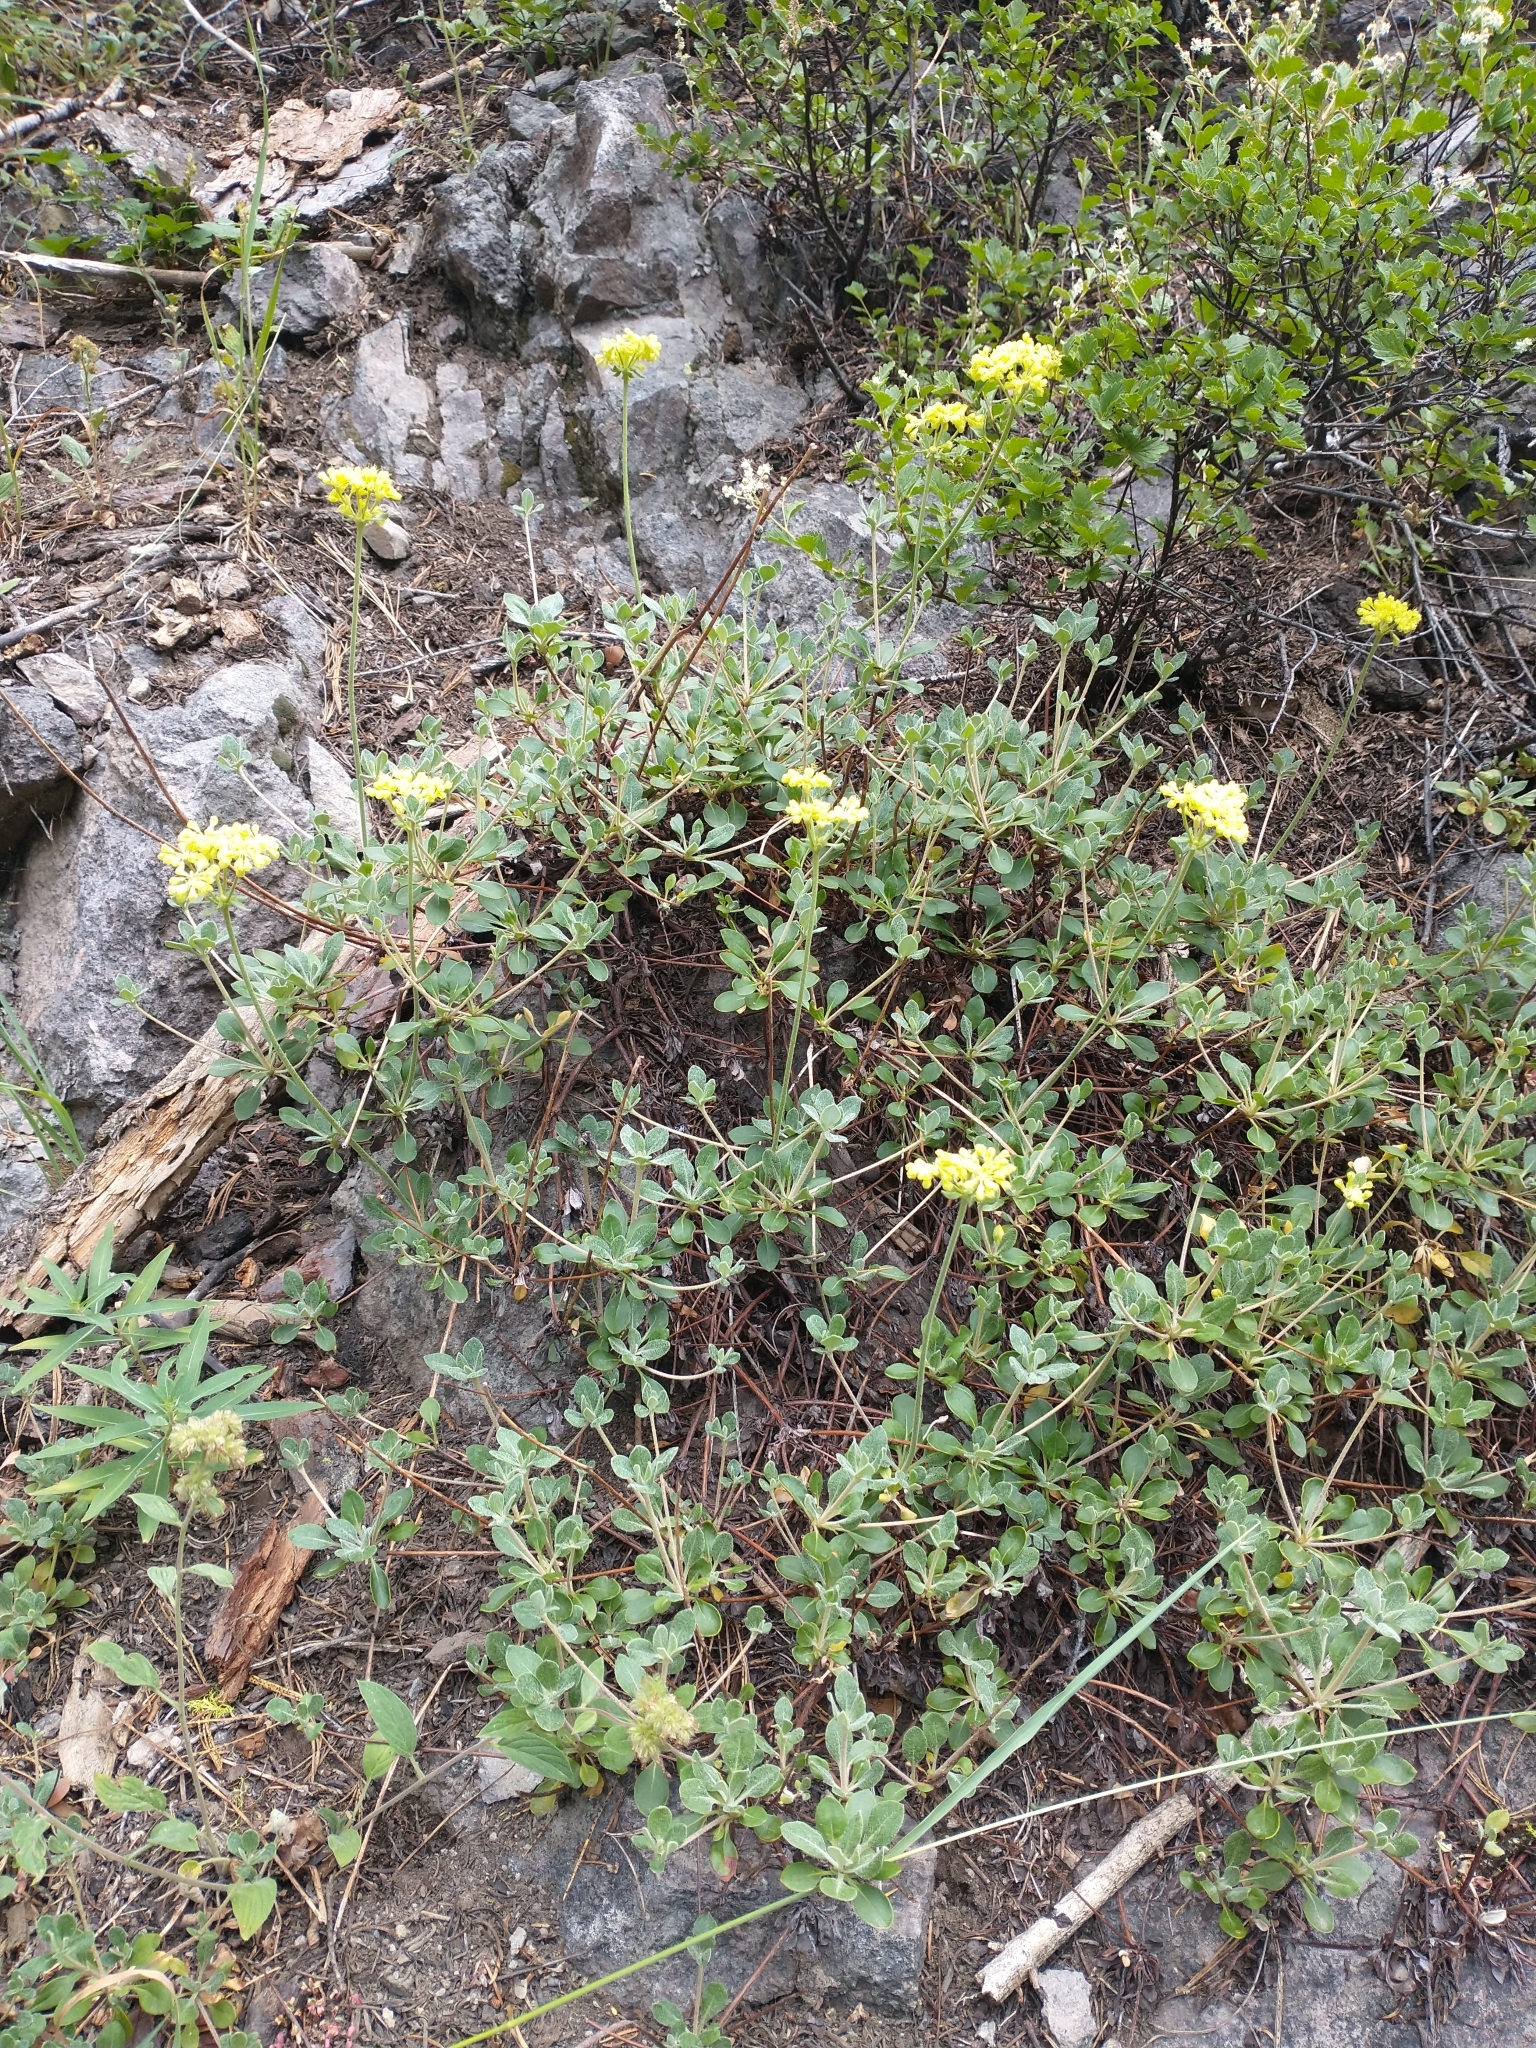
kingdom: Plantae
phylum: Tracheophyta
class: Magnoliopsida
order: Caryophyllales
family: Polygonaceae
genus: Eriogonum
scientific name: Eriogonum marifolium
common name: Marum-leaf wild buckwheat
